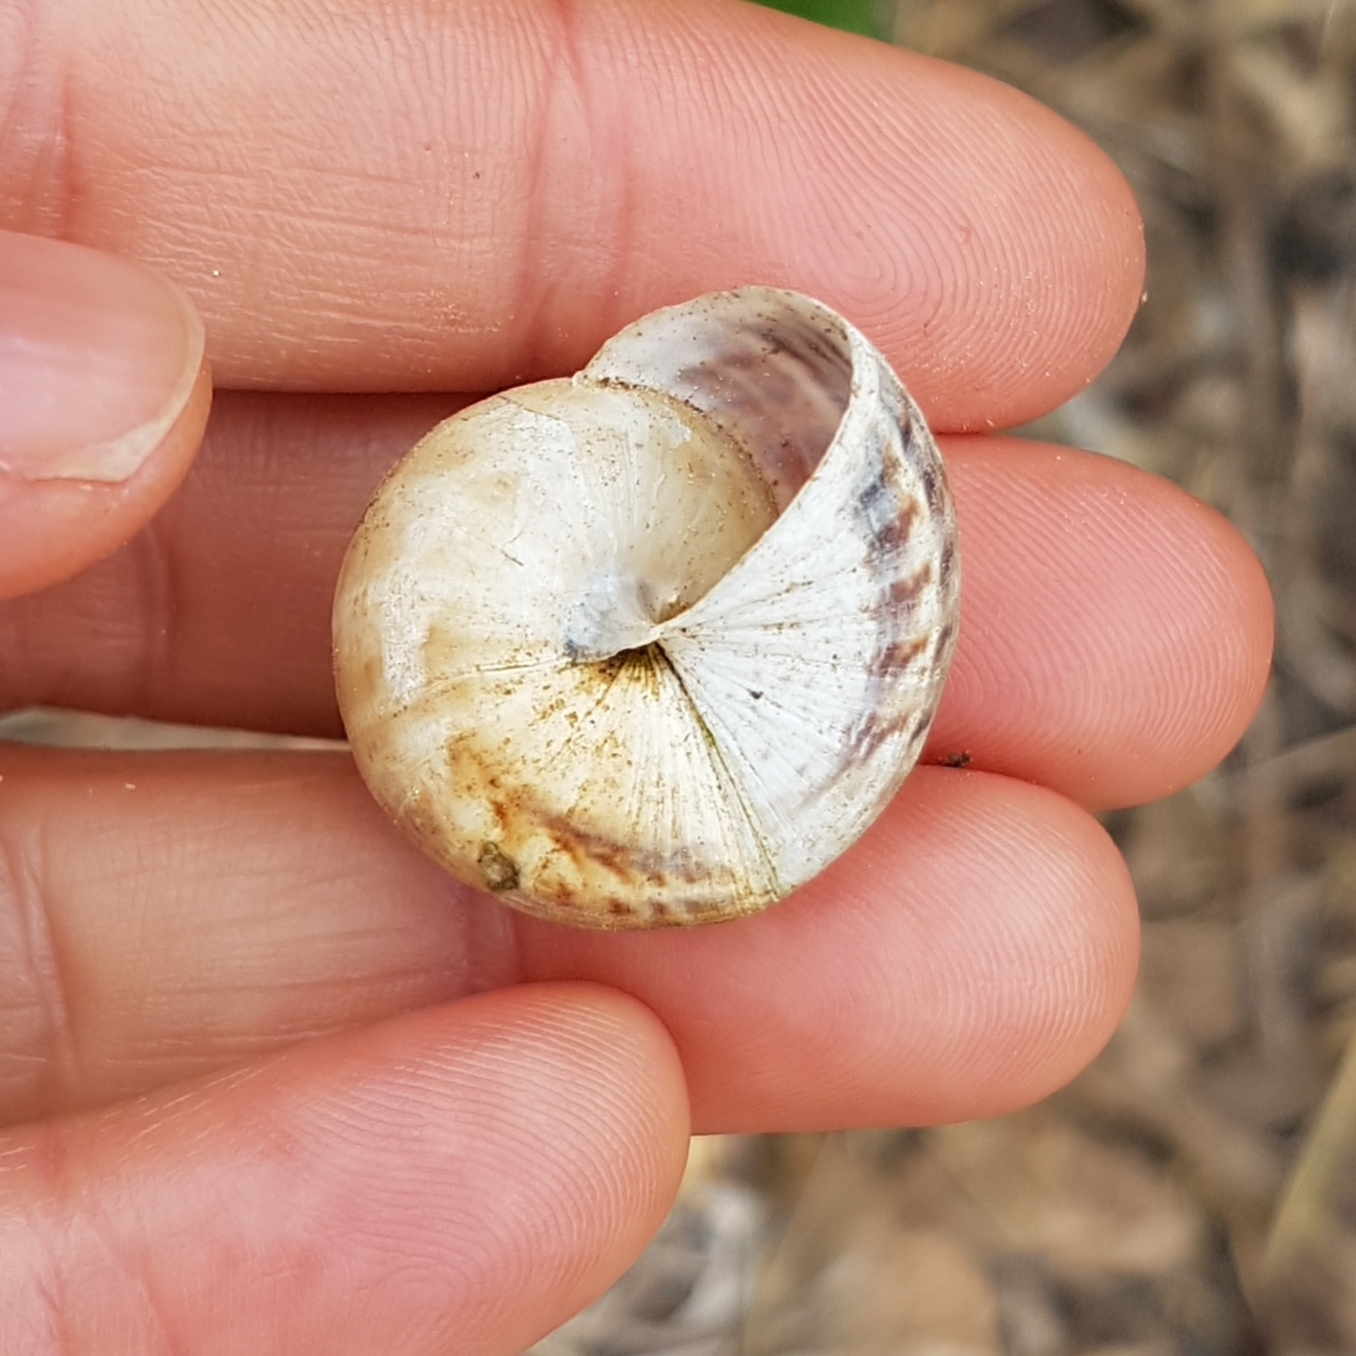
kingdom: Animalia
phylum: Mollusca
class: Gastropoda
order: Stylommatophora
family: Helicidae
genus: Theba
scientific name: Theba pisana
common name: White snail
